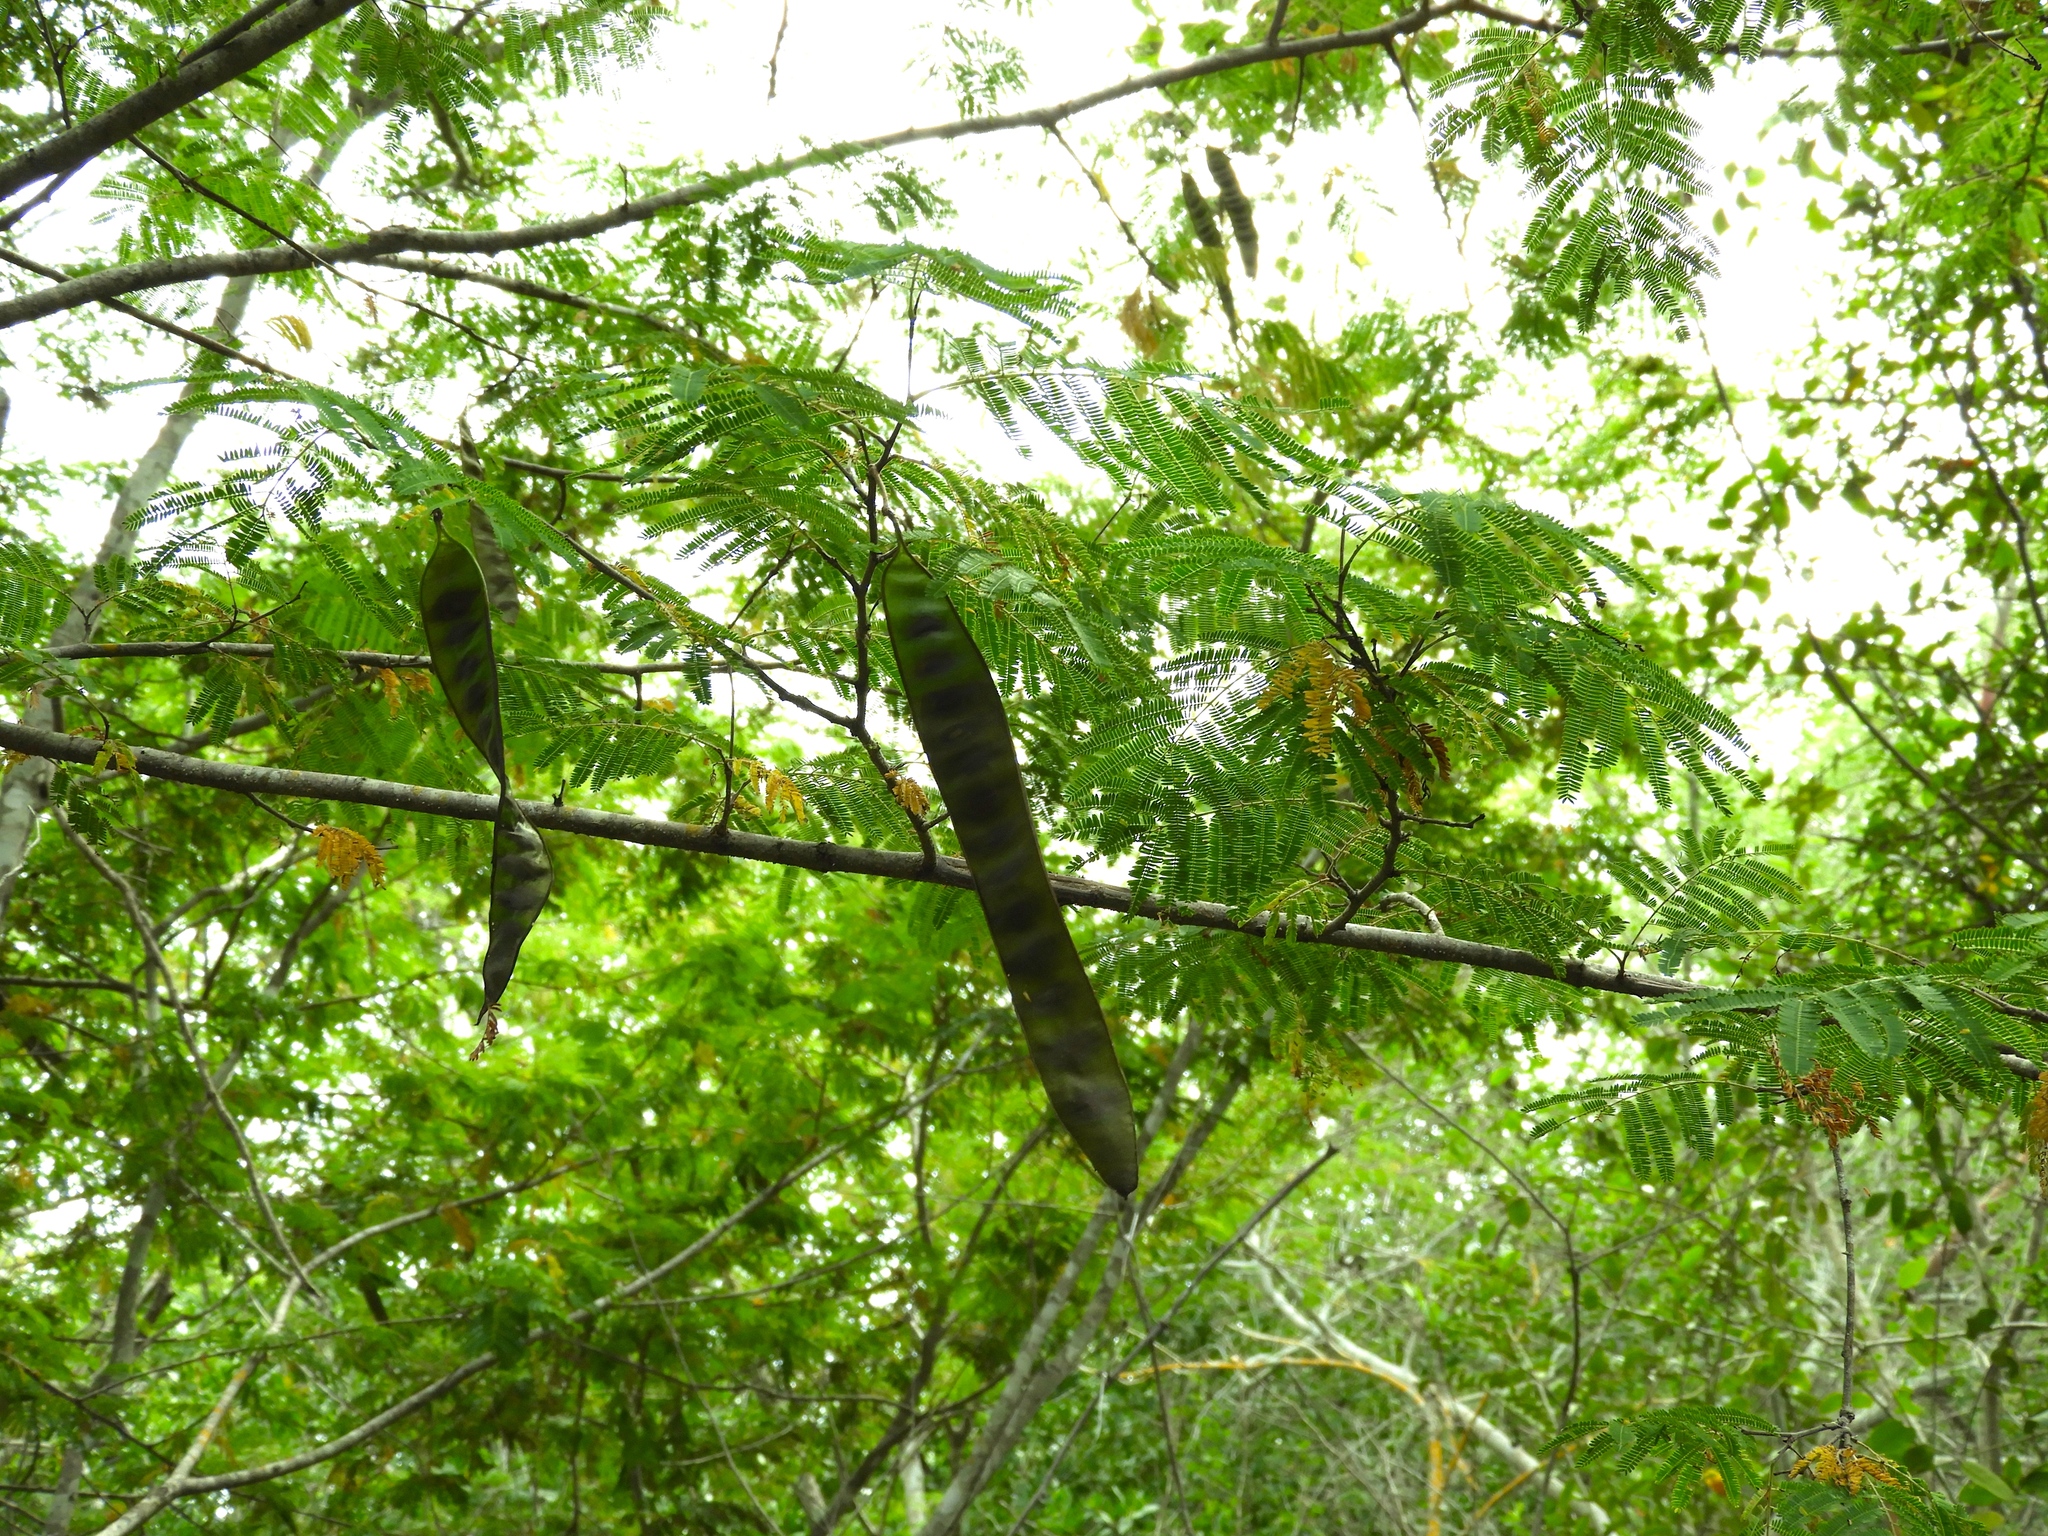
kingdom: Plantae
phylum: Tracheophyta
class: Magnoliopsida
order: Fabales
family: Fabaceae
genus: Lysiloma
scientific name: Lysiloma divaricatum
